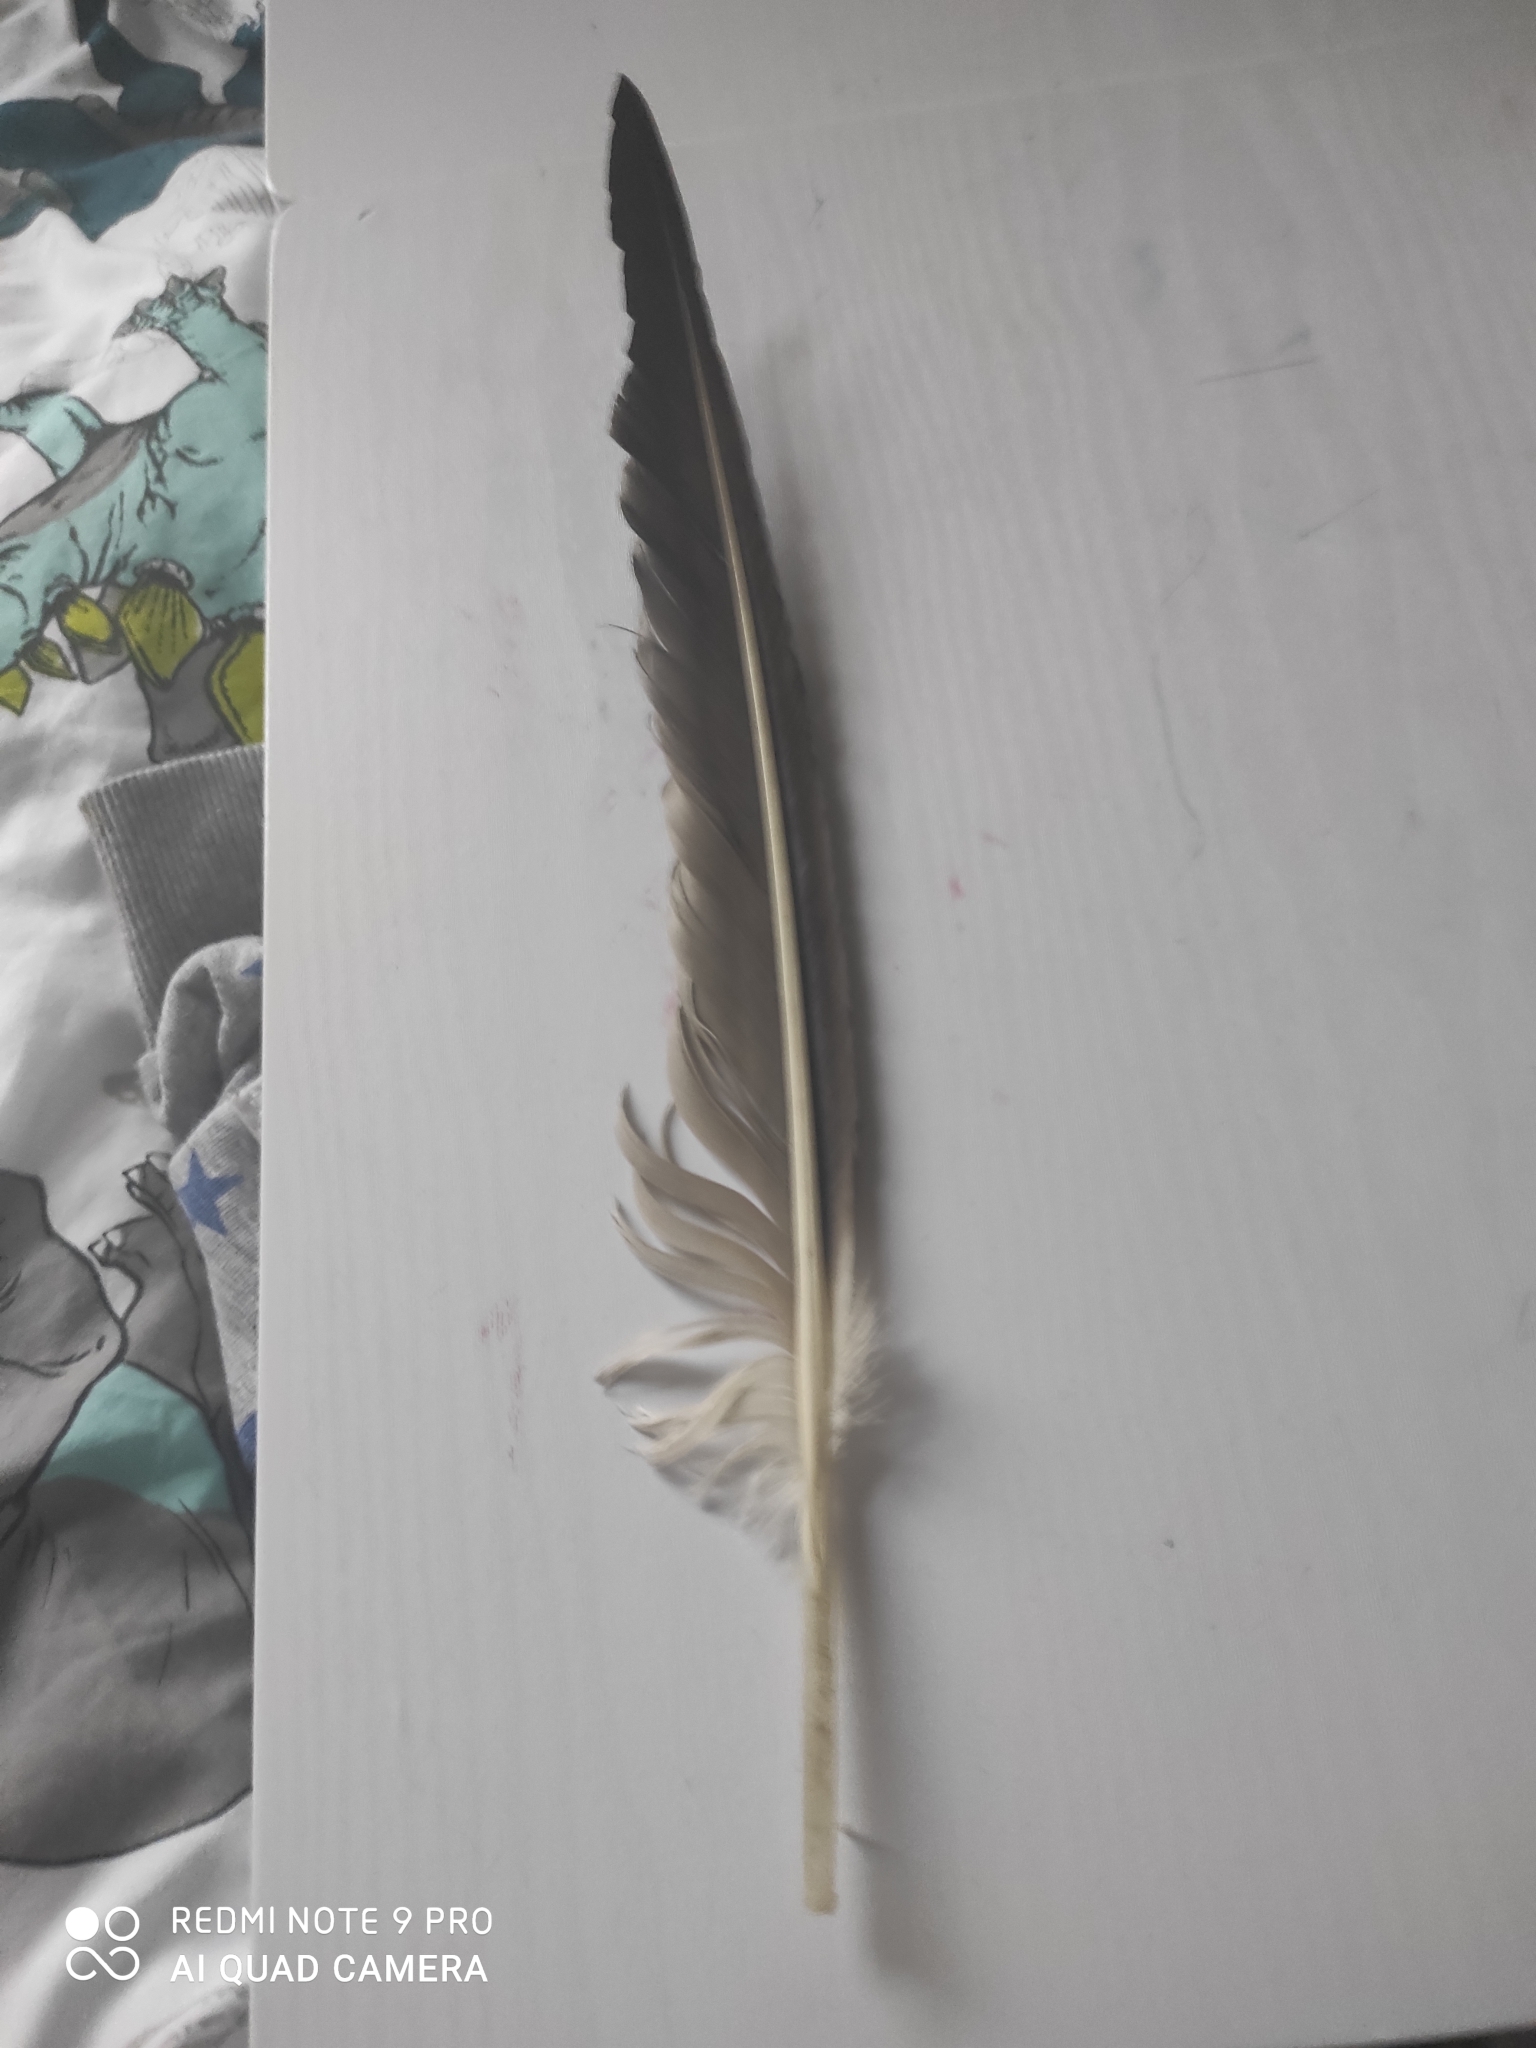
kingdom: Animalia
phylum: Chordata
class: Aves
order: Suliformes
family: Sulidae
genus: Morus
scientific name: Morus bassanus
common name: Northern gannet
